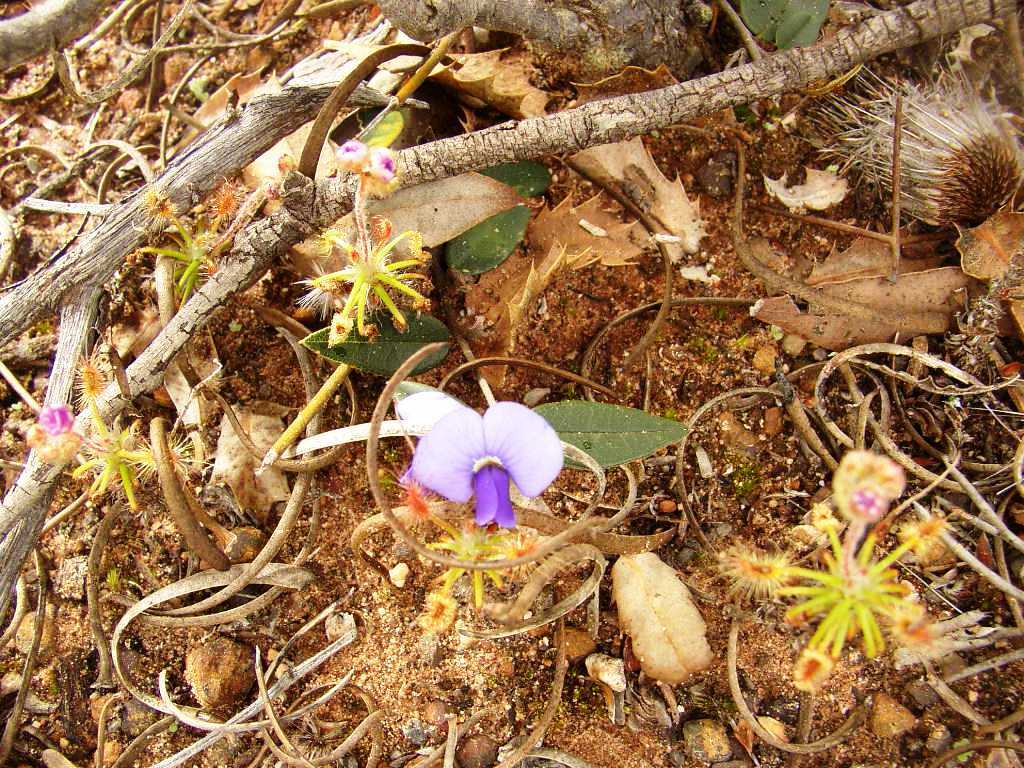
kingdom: Plantae
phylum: Tracheophyta
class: Magnoliopsida
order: Fabales
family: Fabaceae
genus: Hovea
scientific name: Hovea trisperma
